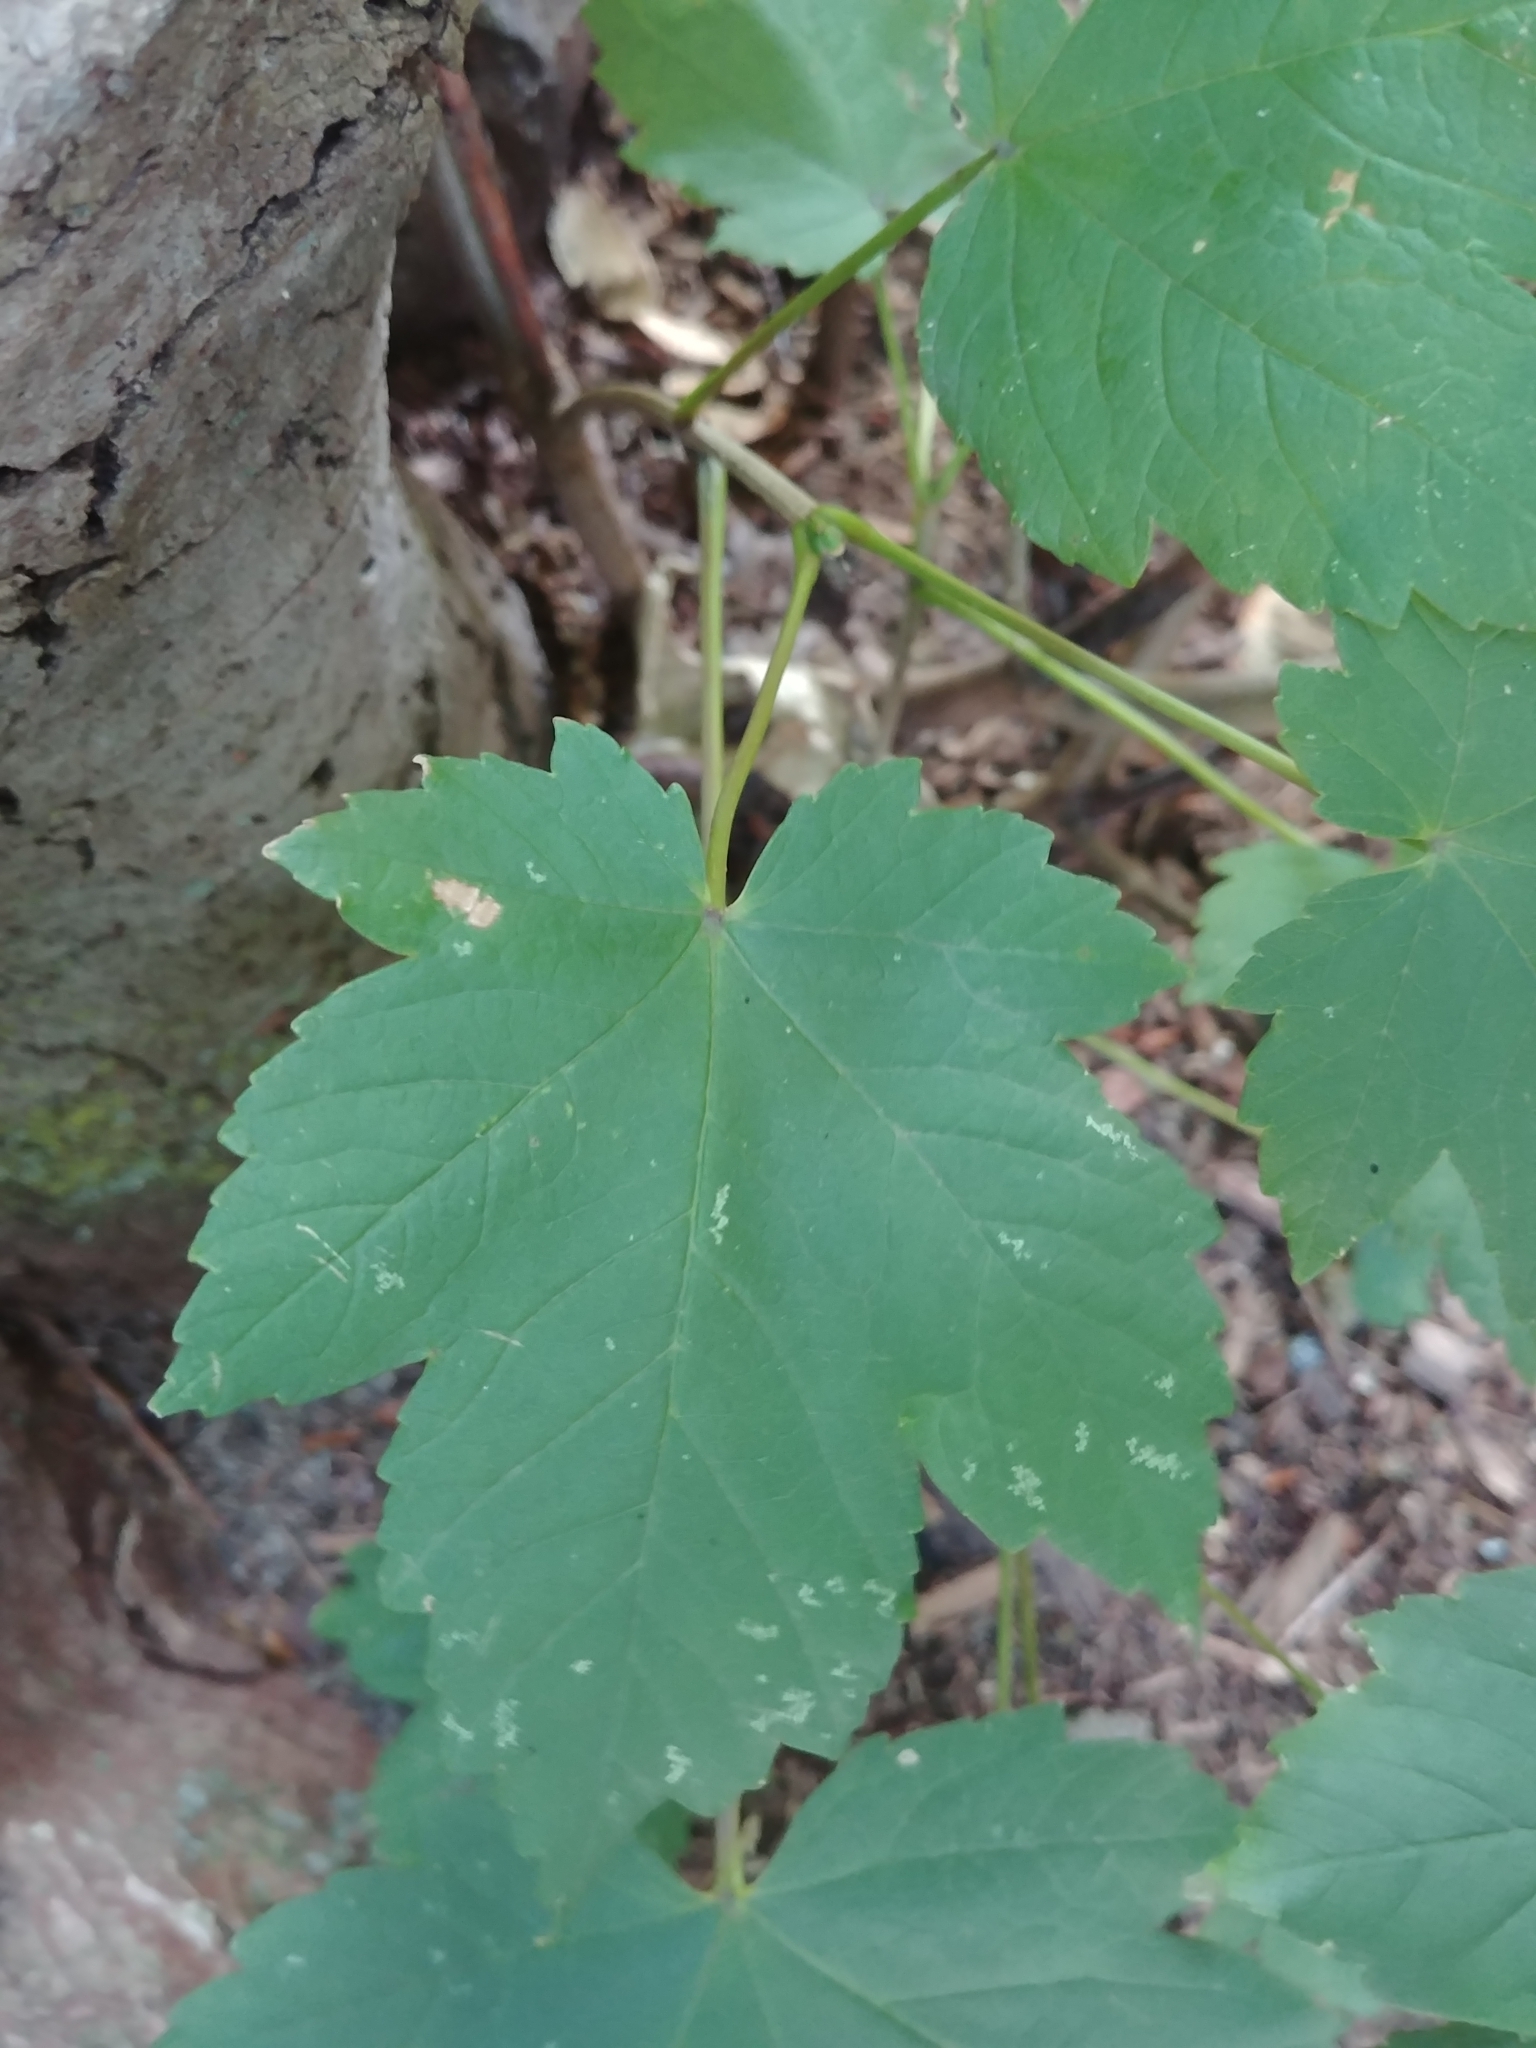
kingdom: Plantae
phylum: Tracheophyta
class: Magnoliopsida
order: Sapindales
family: Sapindaceae
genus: Acer
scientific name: Acer pseudoplatanus
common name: Sycamore
